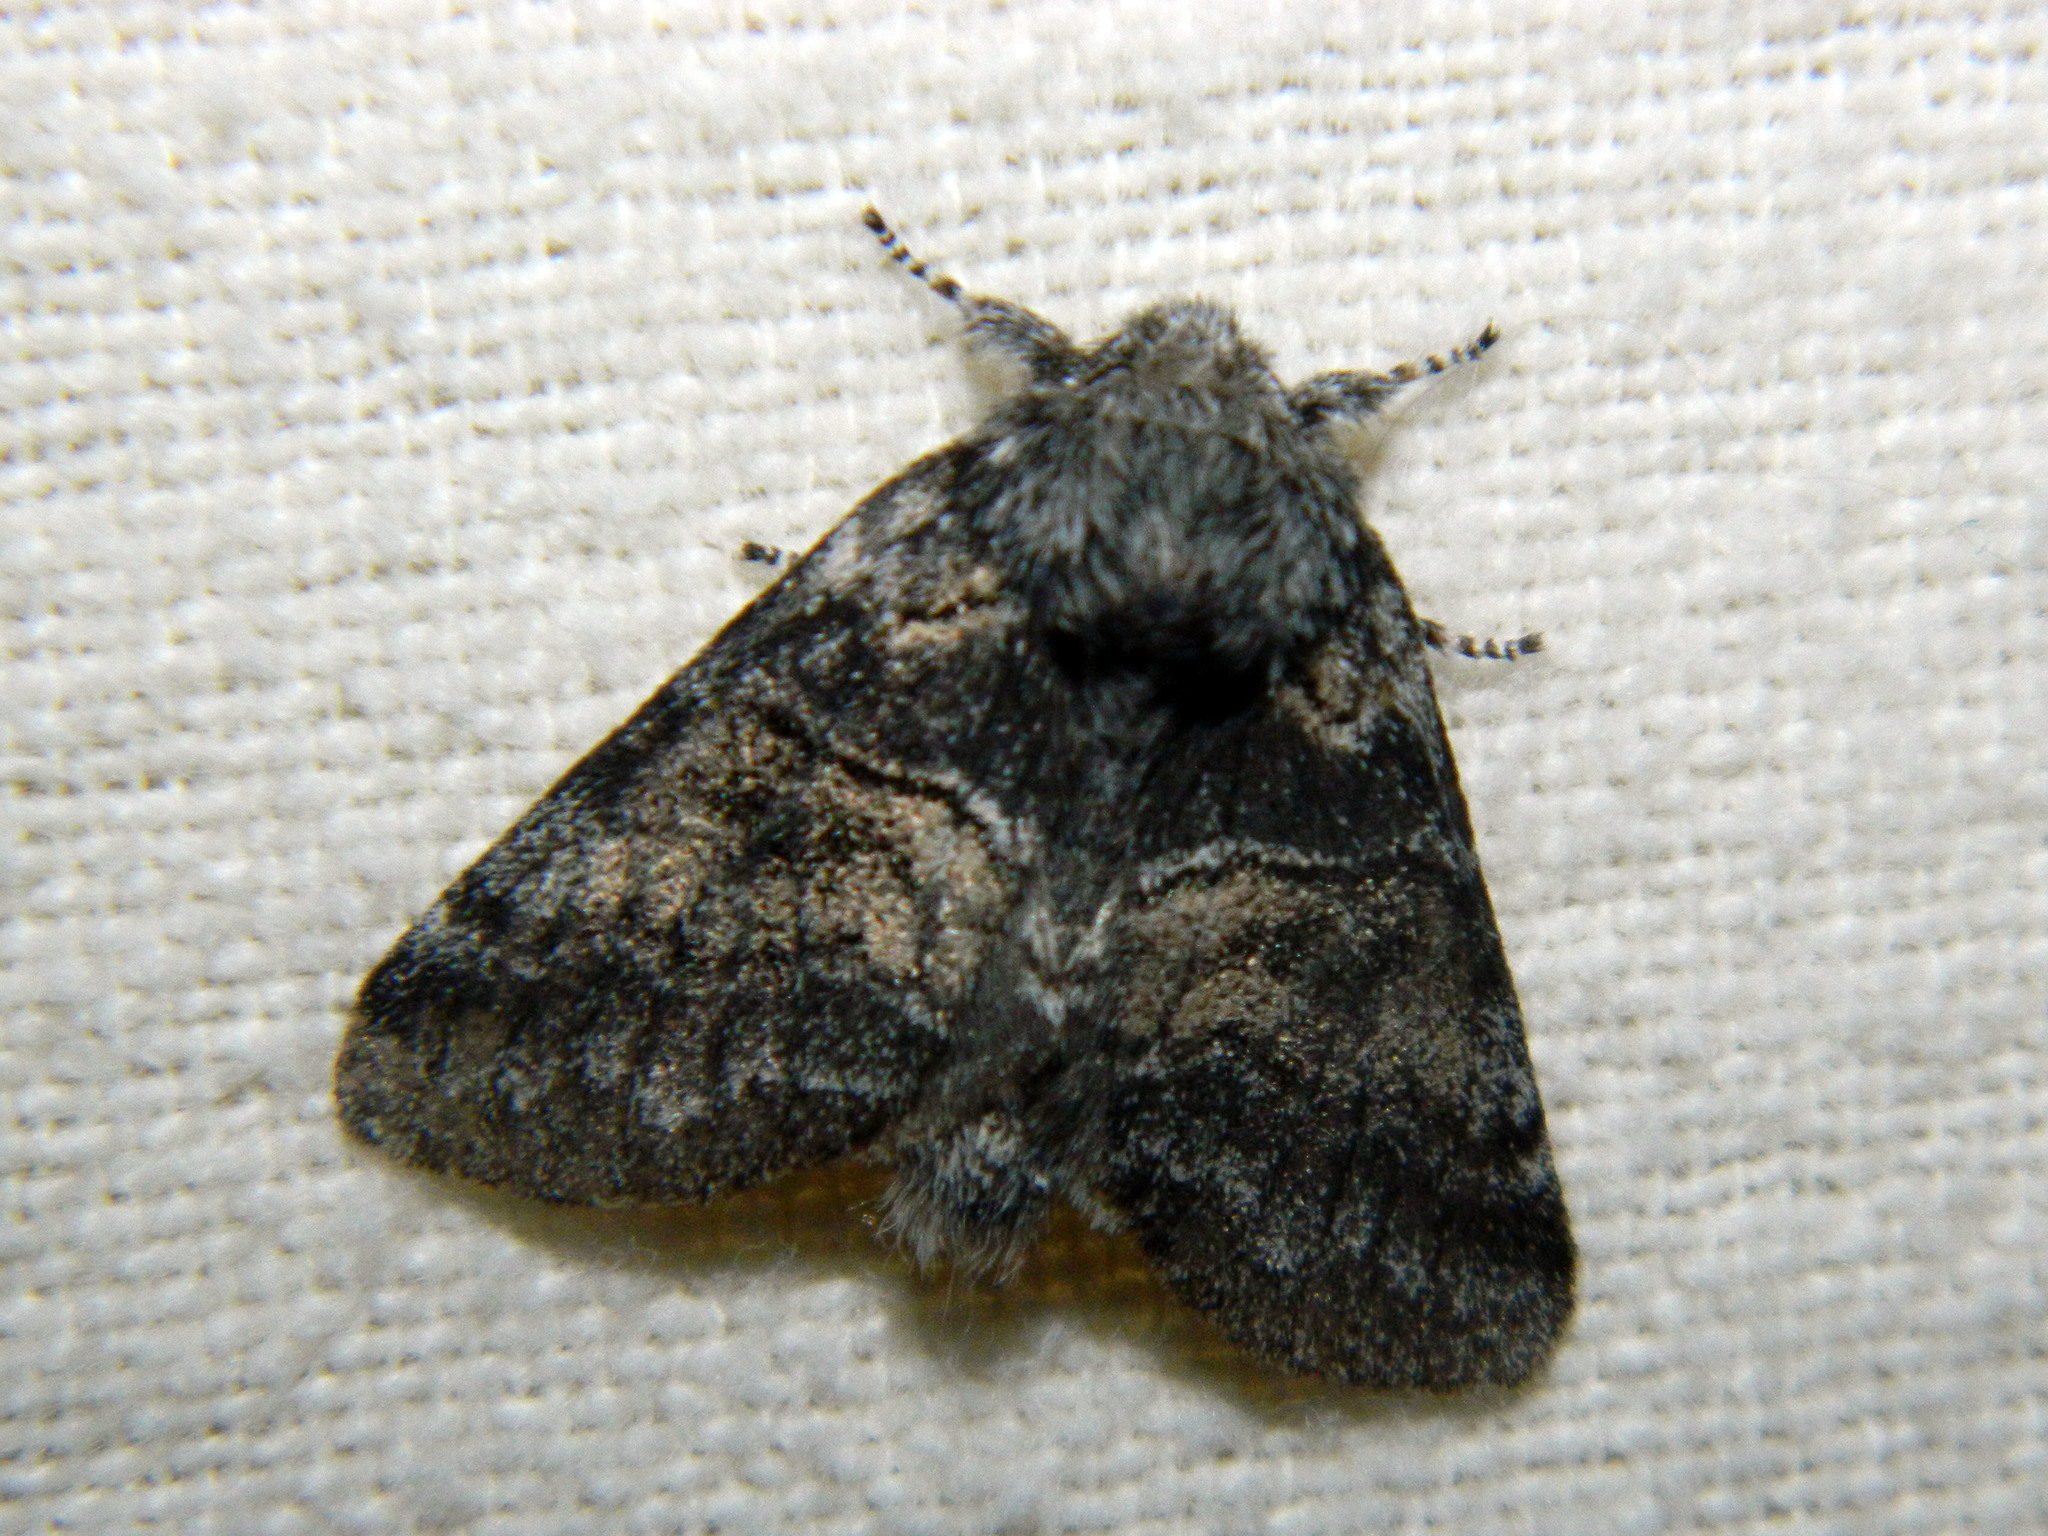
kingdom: Animalia
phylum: Arthropoda
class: Insecta
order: Lepidoptera
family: Notodontidae
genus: Gluphisia
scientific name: Gluphisia septentrionis
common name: Common gluphisia
